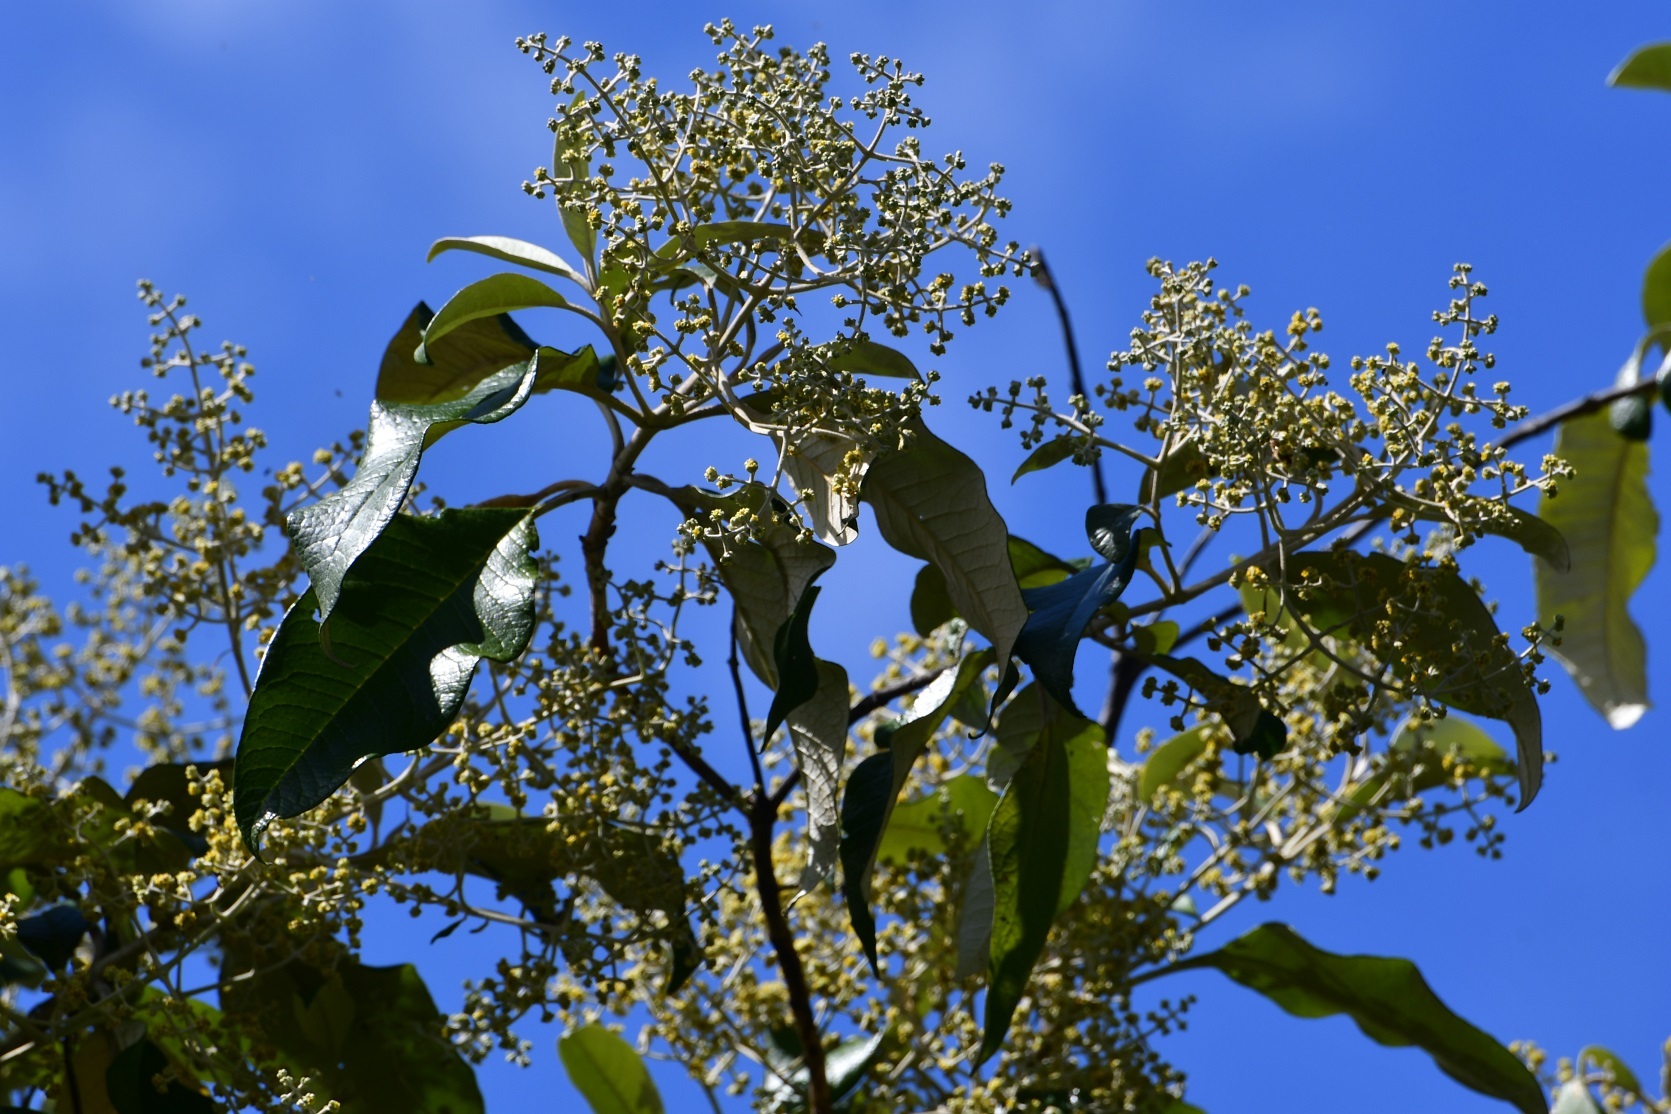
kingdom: Plantae
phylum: Tracheophyta
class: Magnoliopsida
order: Lamiales
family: Scrophulariaceae
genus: Buddleja
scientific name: Buddleja cordata
